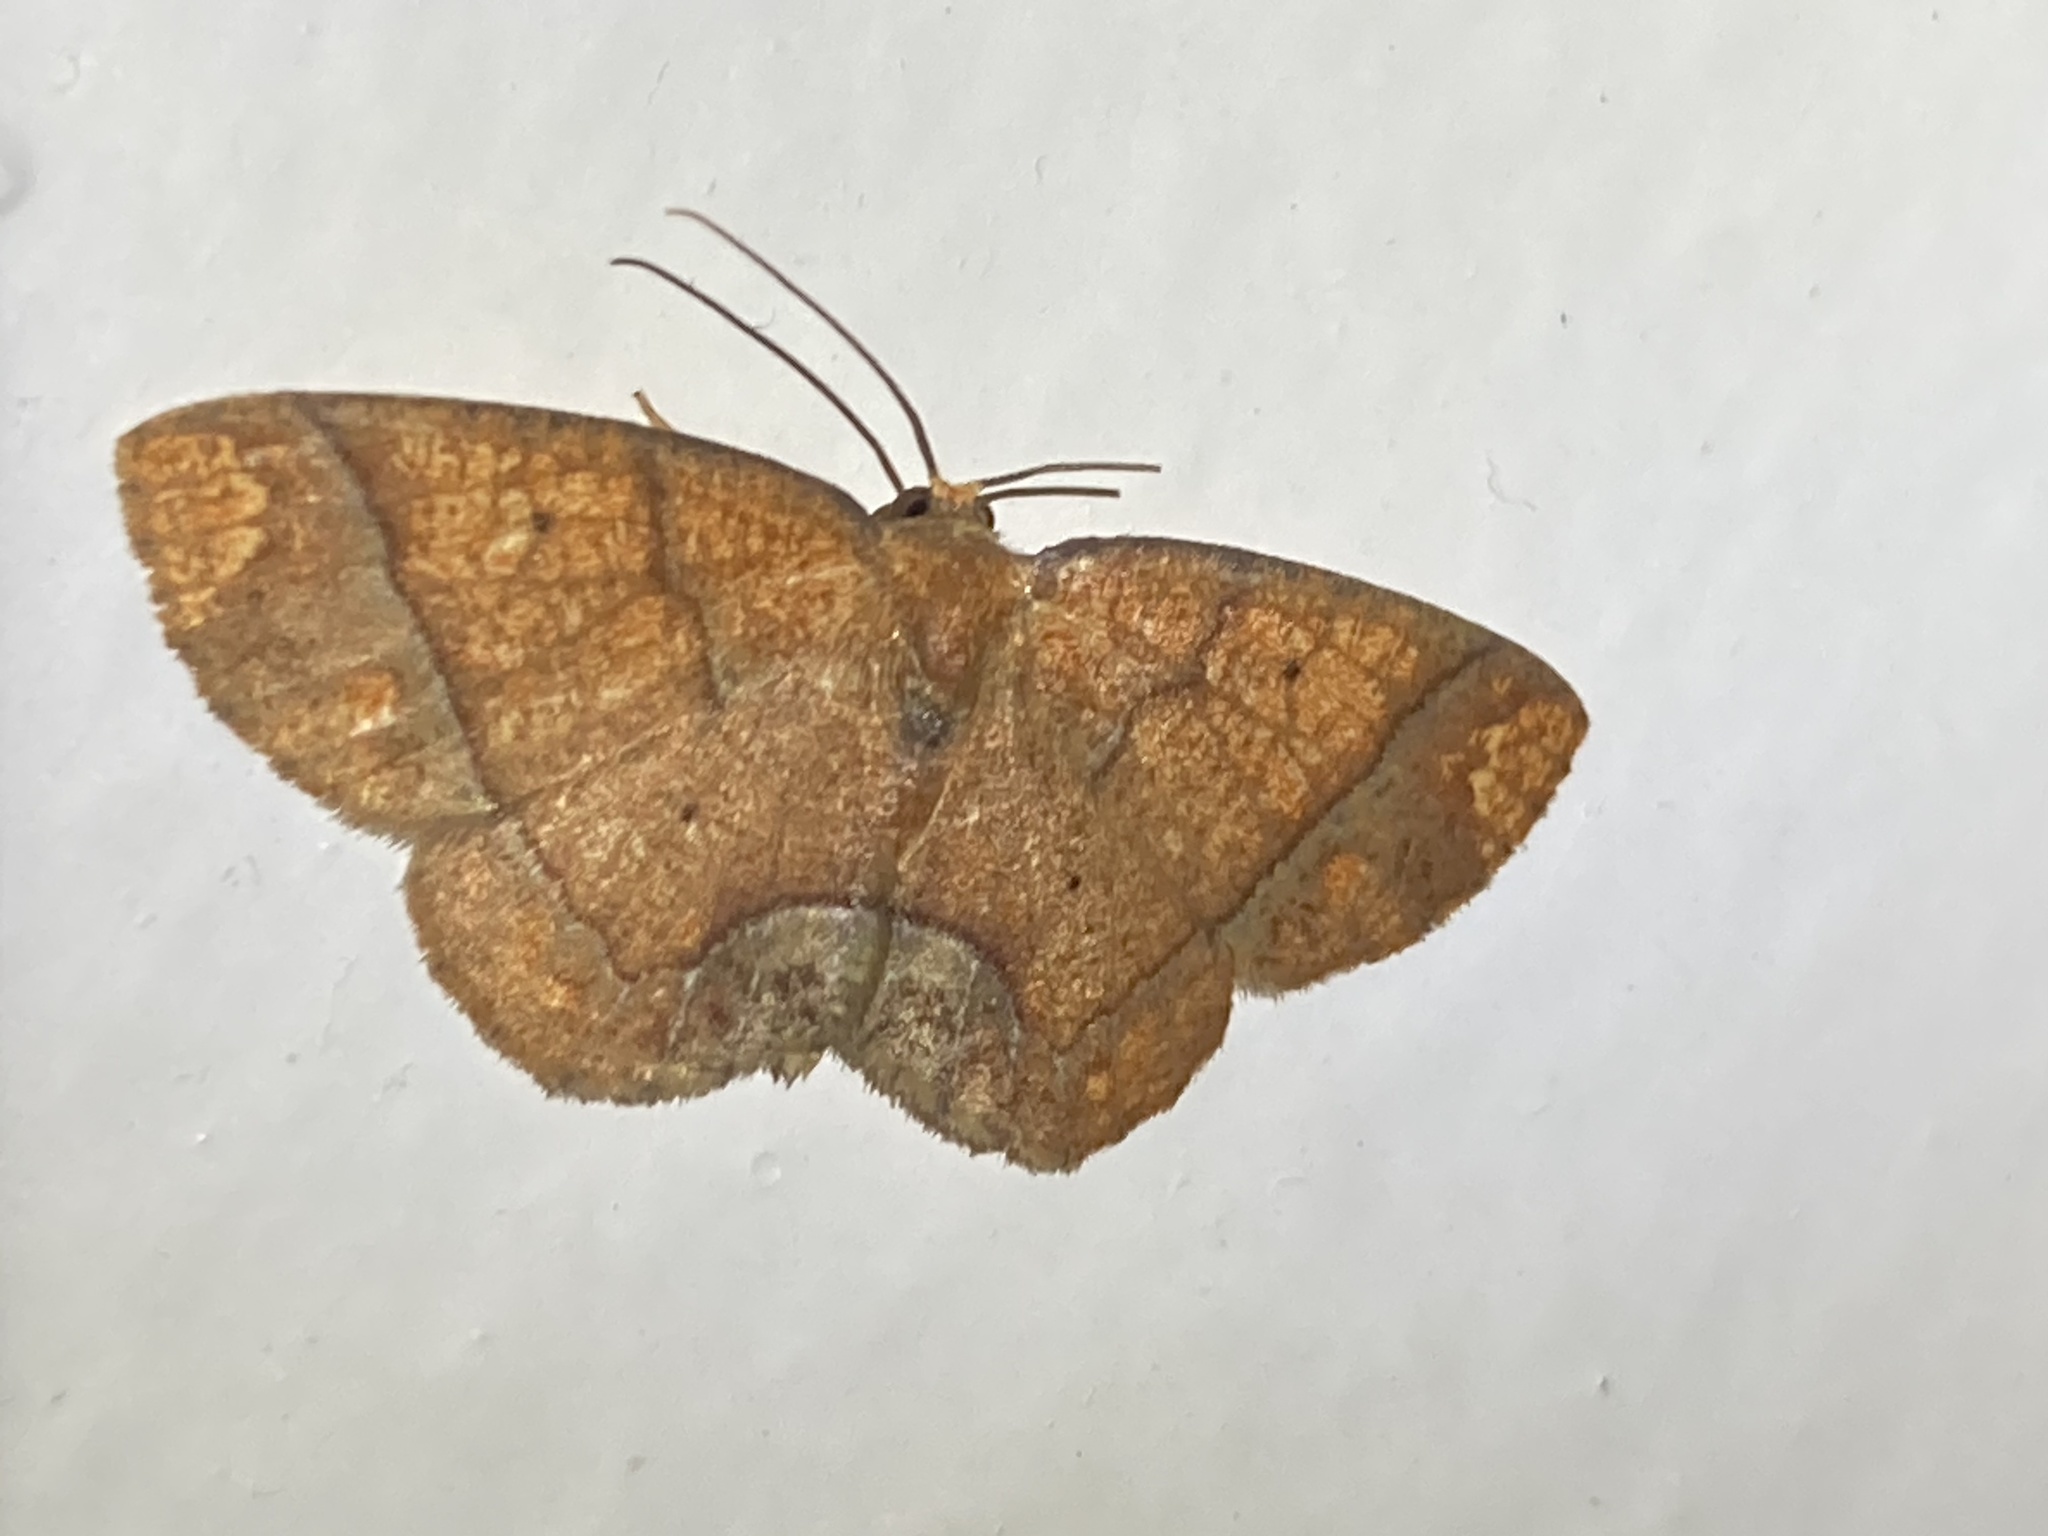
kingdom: Animalia
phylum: Arthropoda
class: Insecta
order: Lepidoptera
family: Geometridae
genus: Melinoides
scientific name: Melinoides detersaria
